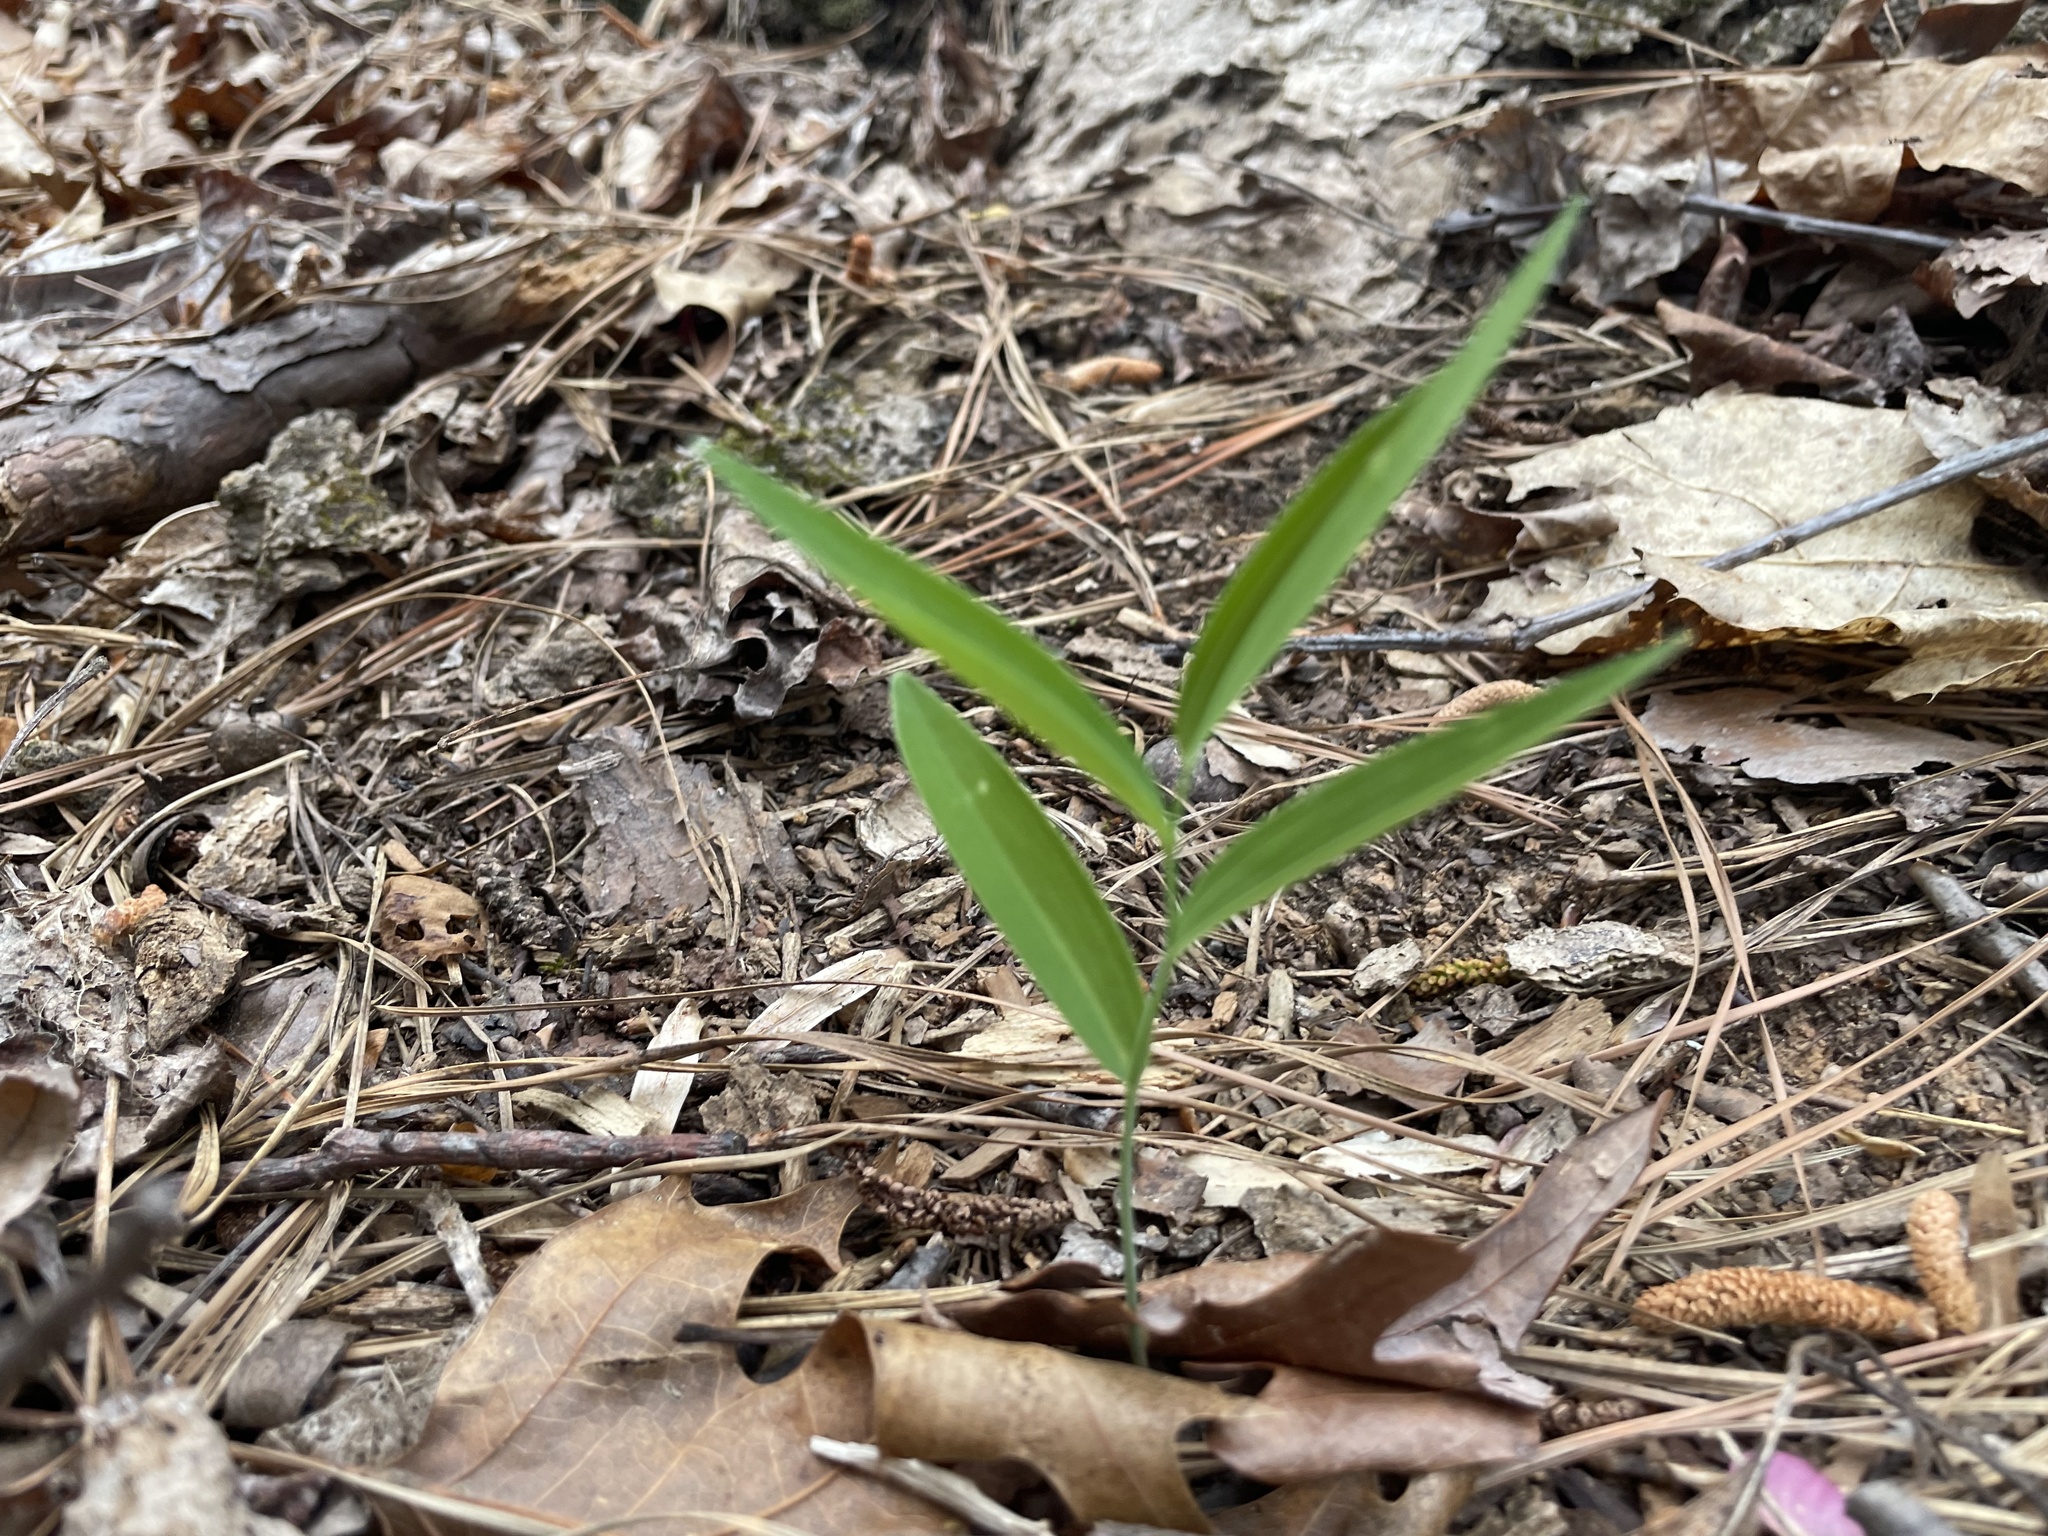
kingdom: Plantae
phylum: Tracheophyta
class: Liliopsida
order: Asparagales
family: Asparagaceae
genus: Polygonatum
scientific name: Polygonatum biflorum
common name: American solomon's-seal
